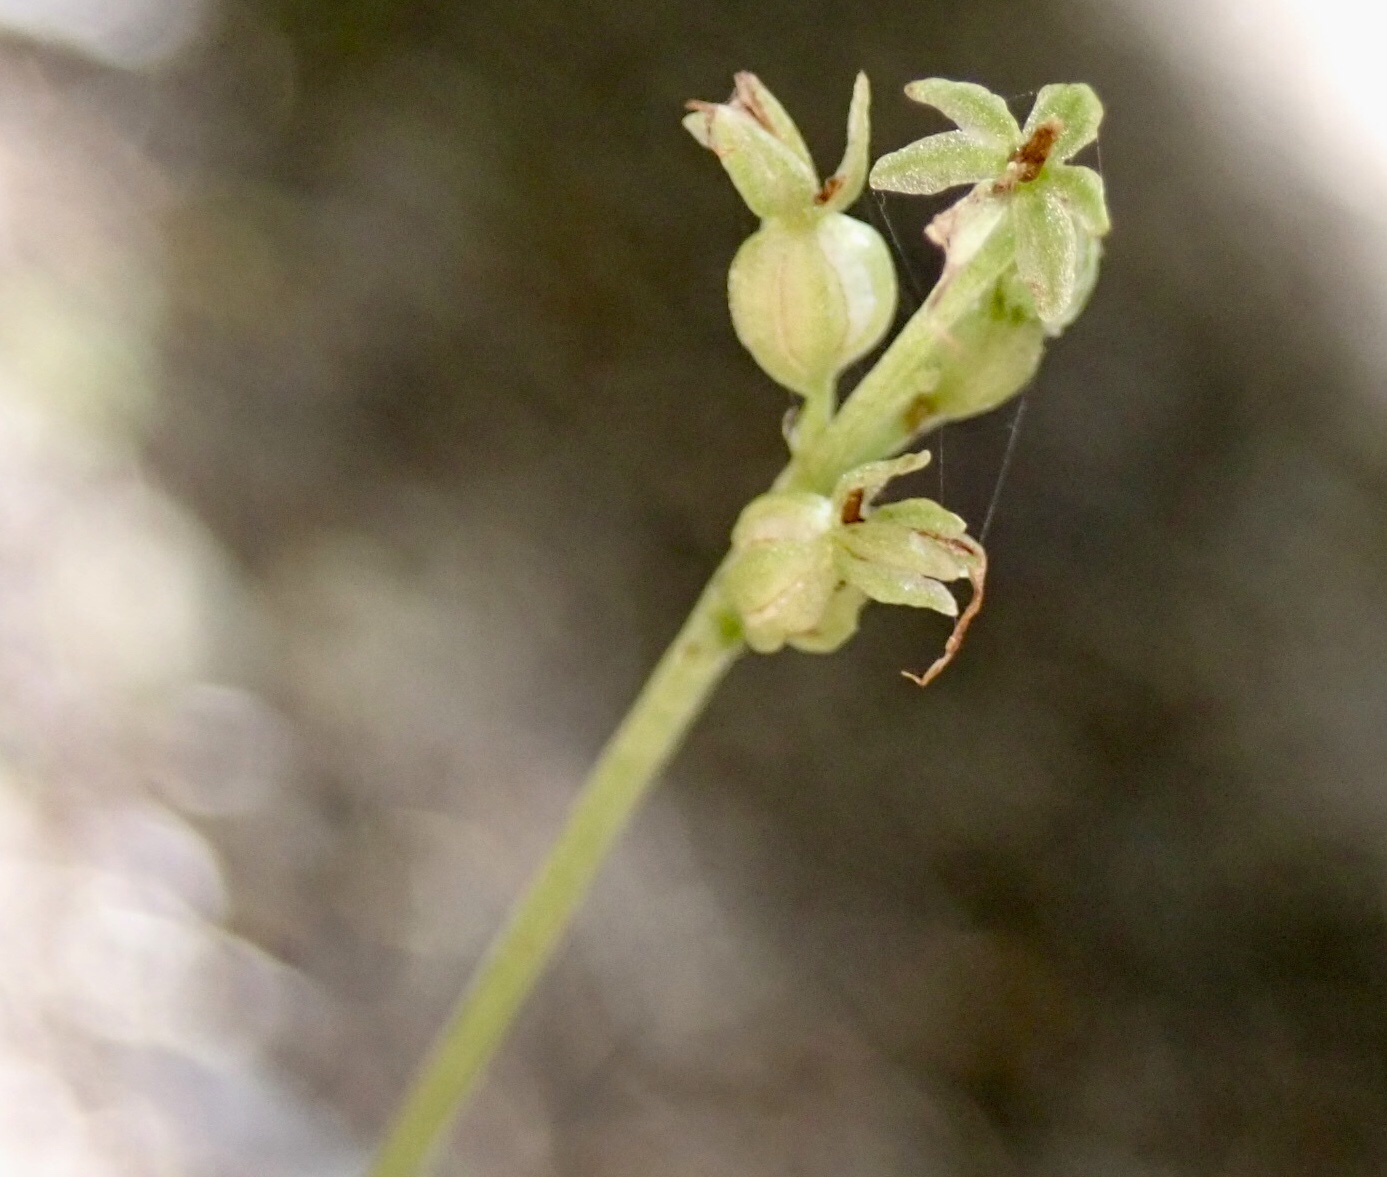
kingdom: Plantae
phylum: Tracheophyta
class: Liliopsida
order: Asparagales
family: Orchidaceae
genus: Neottia
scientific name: Neottia cordata
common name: Lesser twayblade
